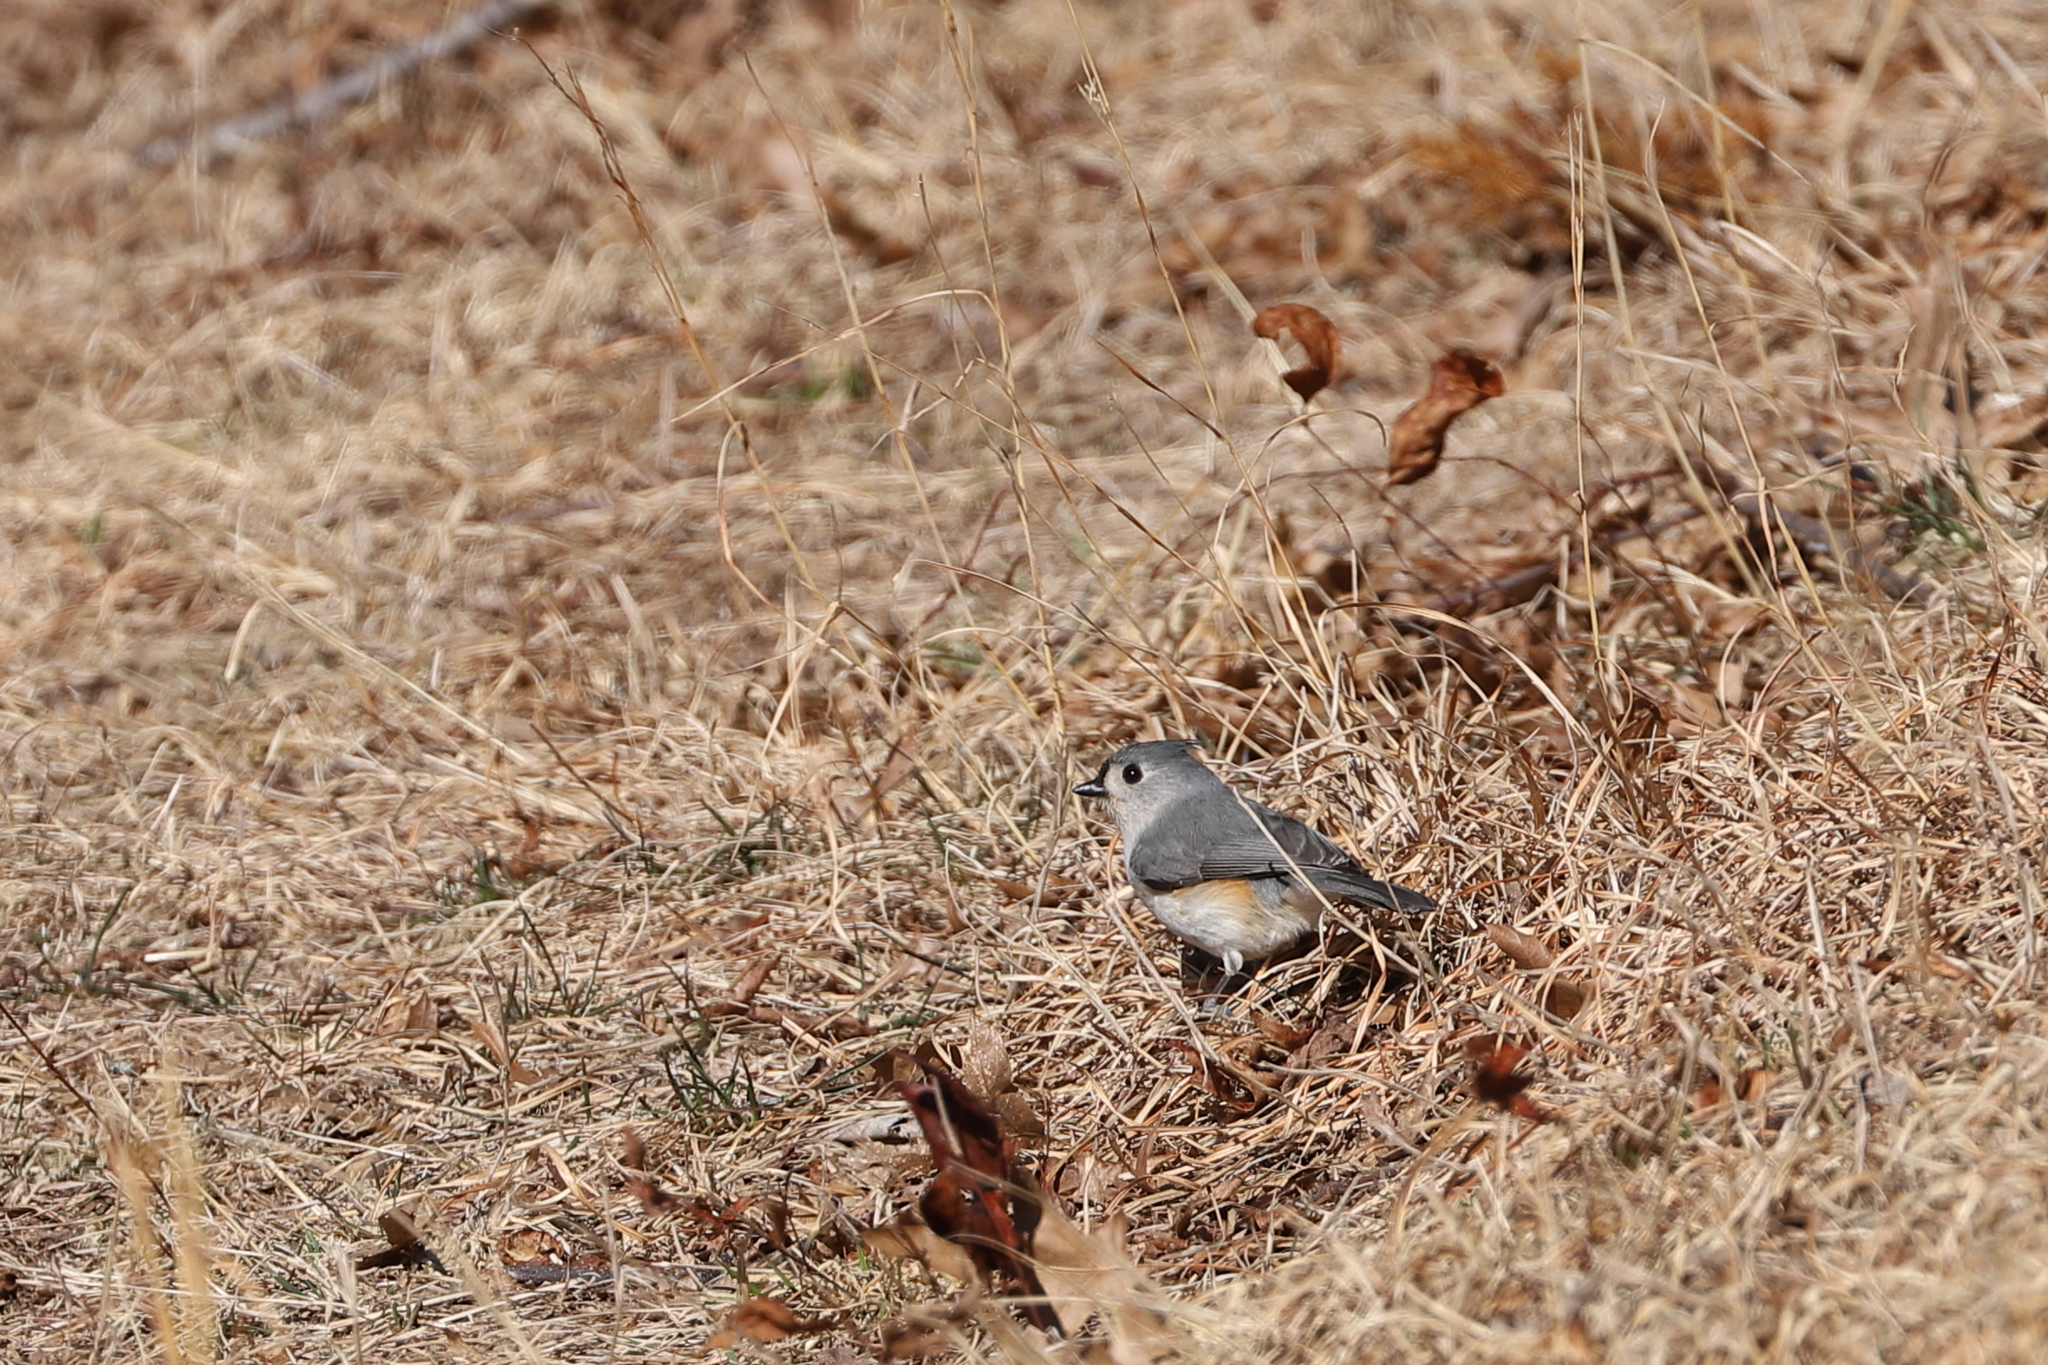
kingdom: Animalia
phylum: Chordata
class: Aves
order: Passeriformes
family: Paridae
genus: Baeolophus
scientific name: Baeolophus bicolor
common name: Tufted titmouse
